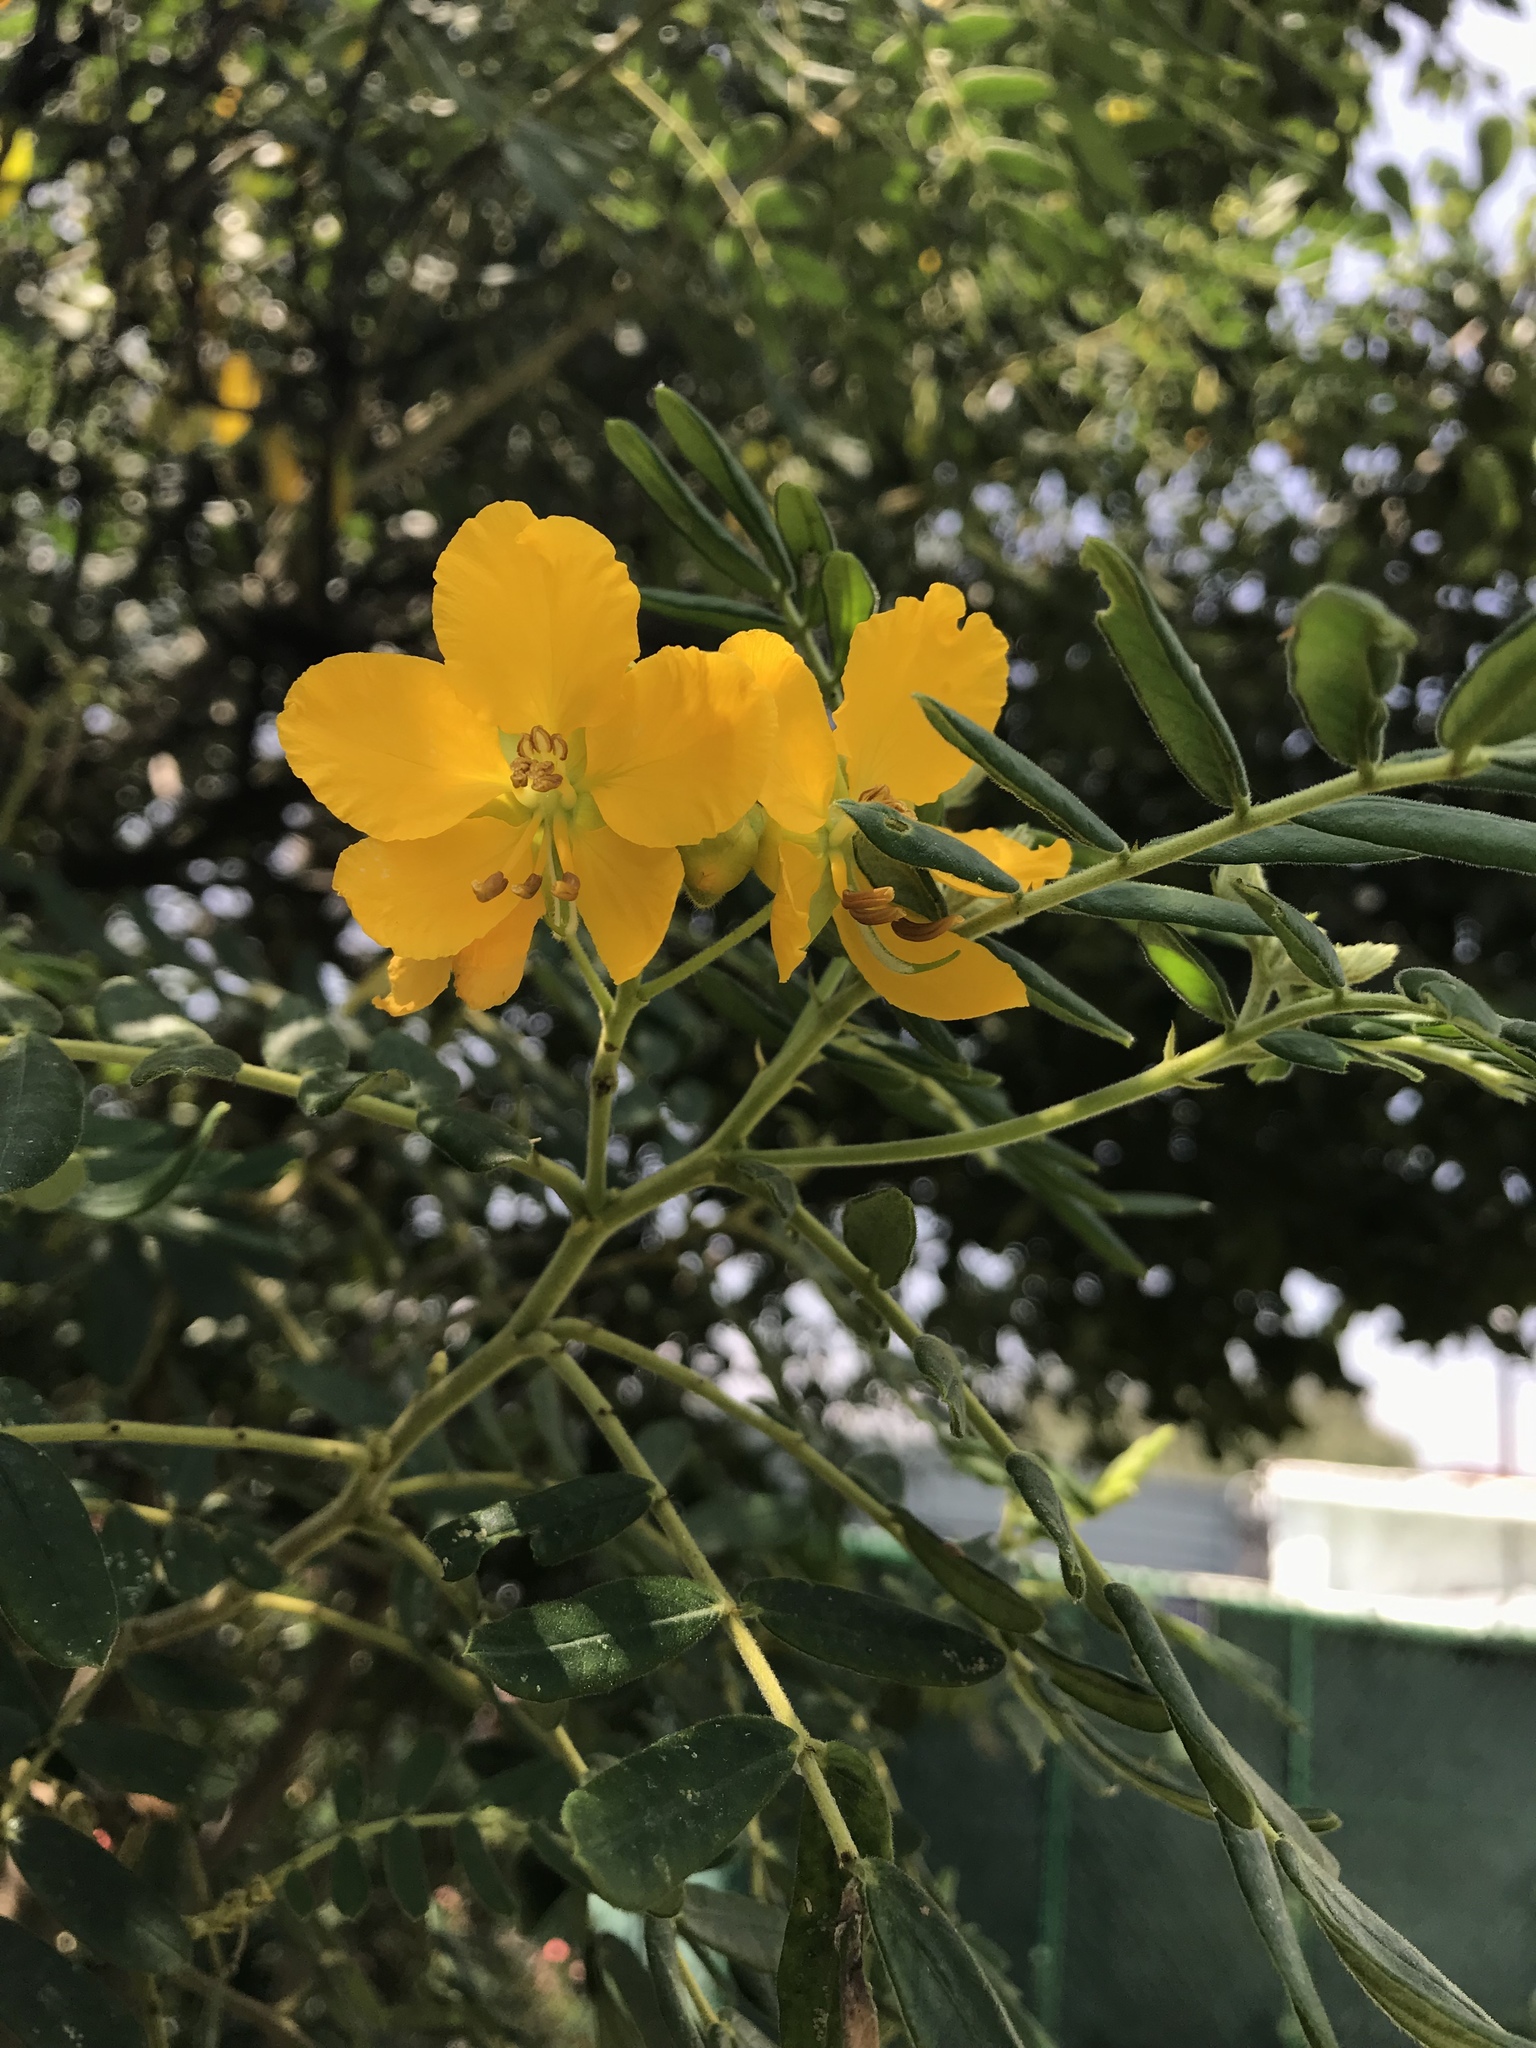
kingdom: Plantae
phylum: Tracheophyta
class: Magnoliopsida
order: Fabales
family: Fabaceae
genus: Senna
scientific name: Senna multiglandulosa
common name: Glandular senna
